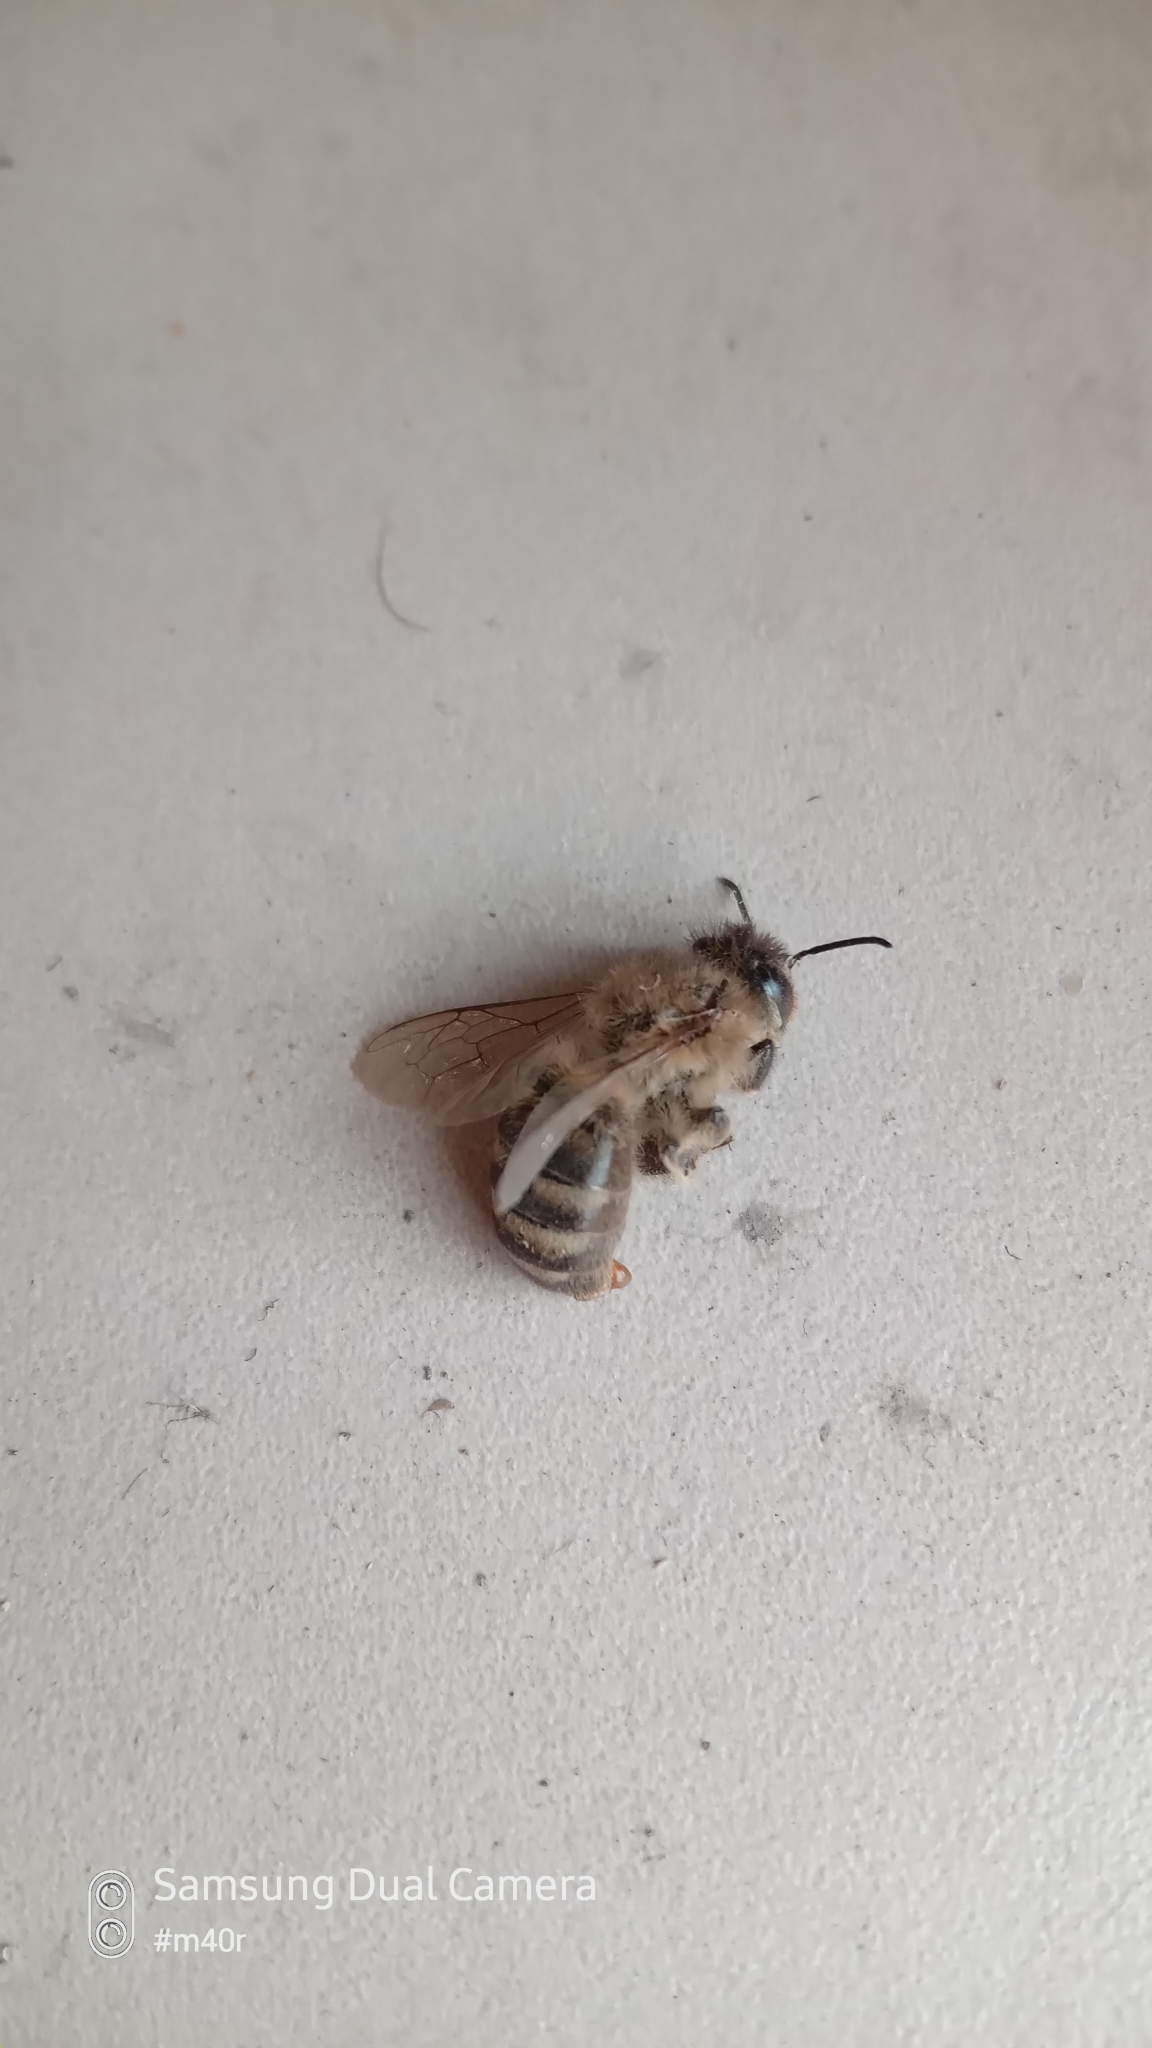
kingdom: Animalia
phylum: Arthropoda
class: Insecta
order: Hymenoptera
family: Apidae
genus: Apis
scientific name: Apis mellifera
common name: Honey bee
